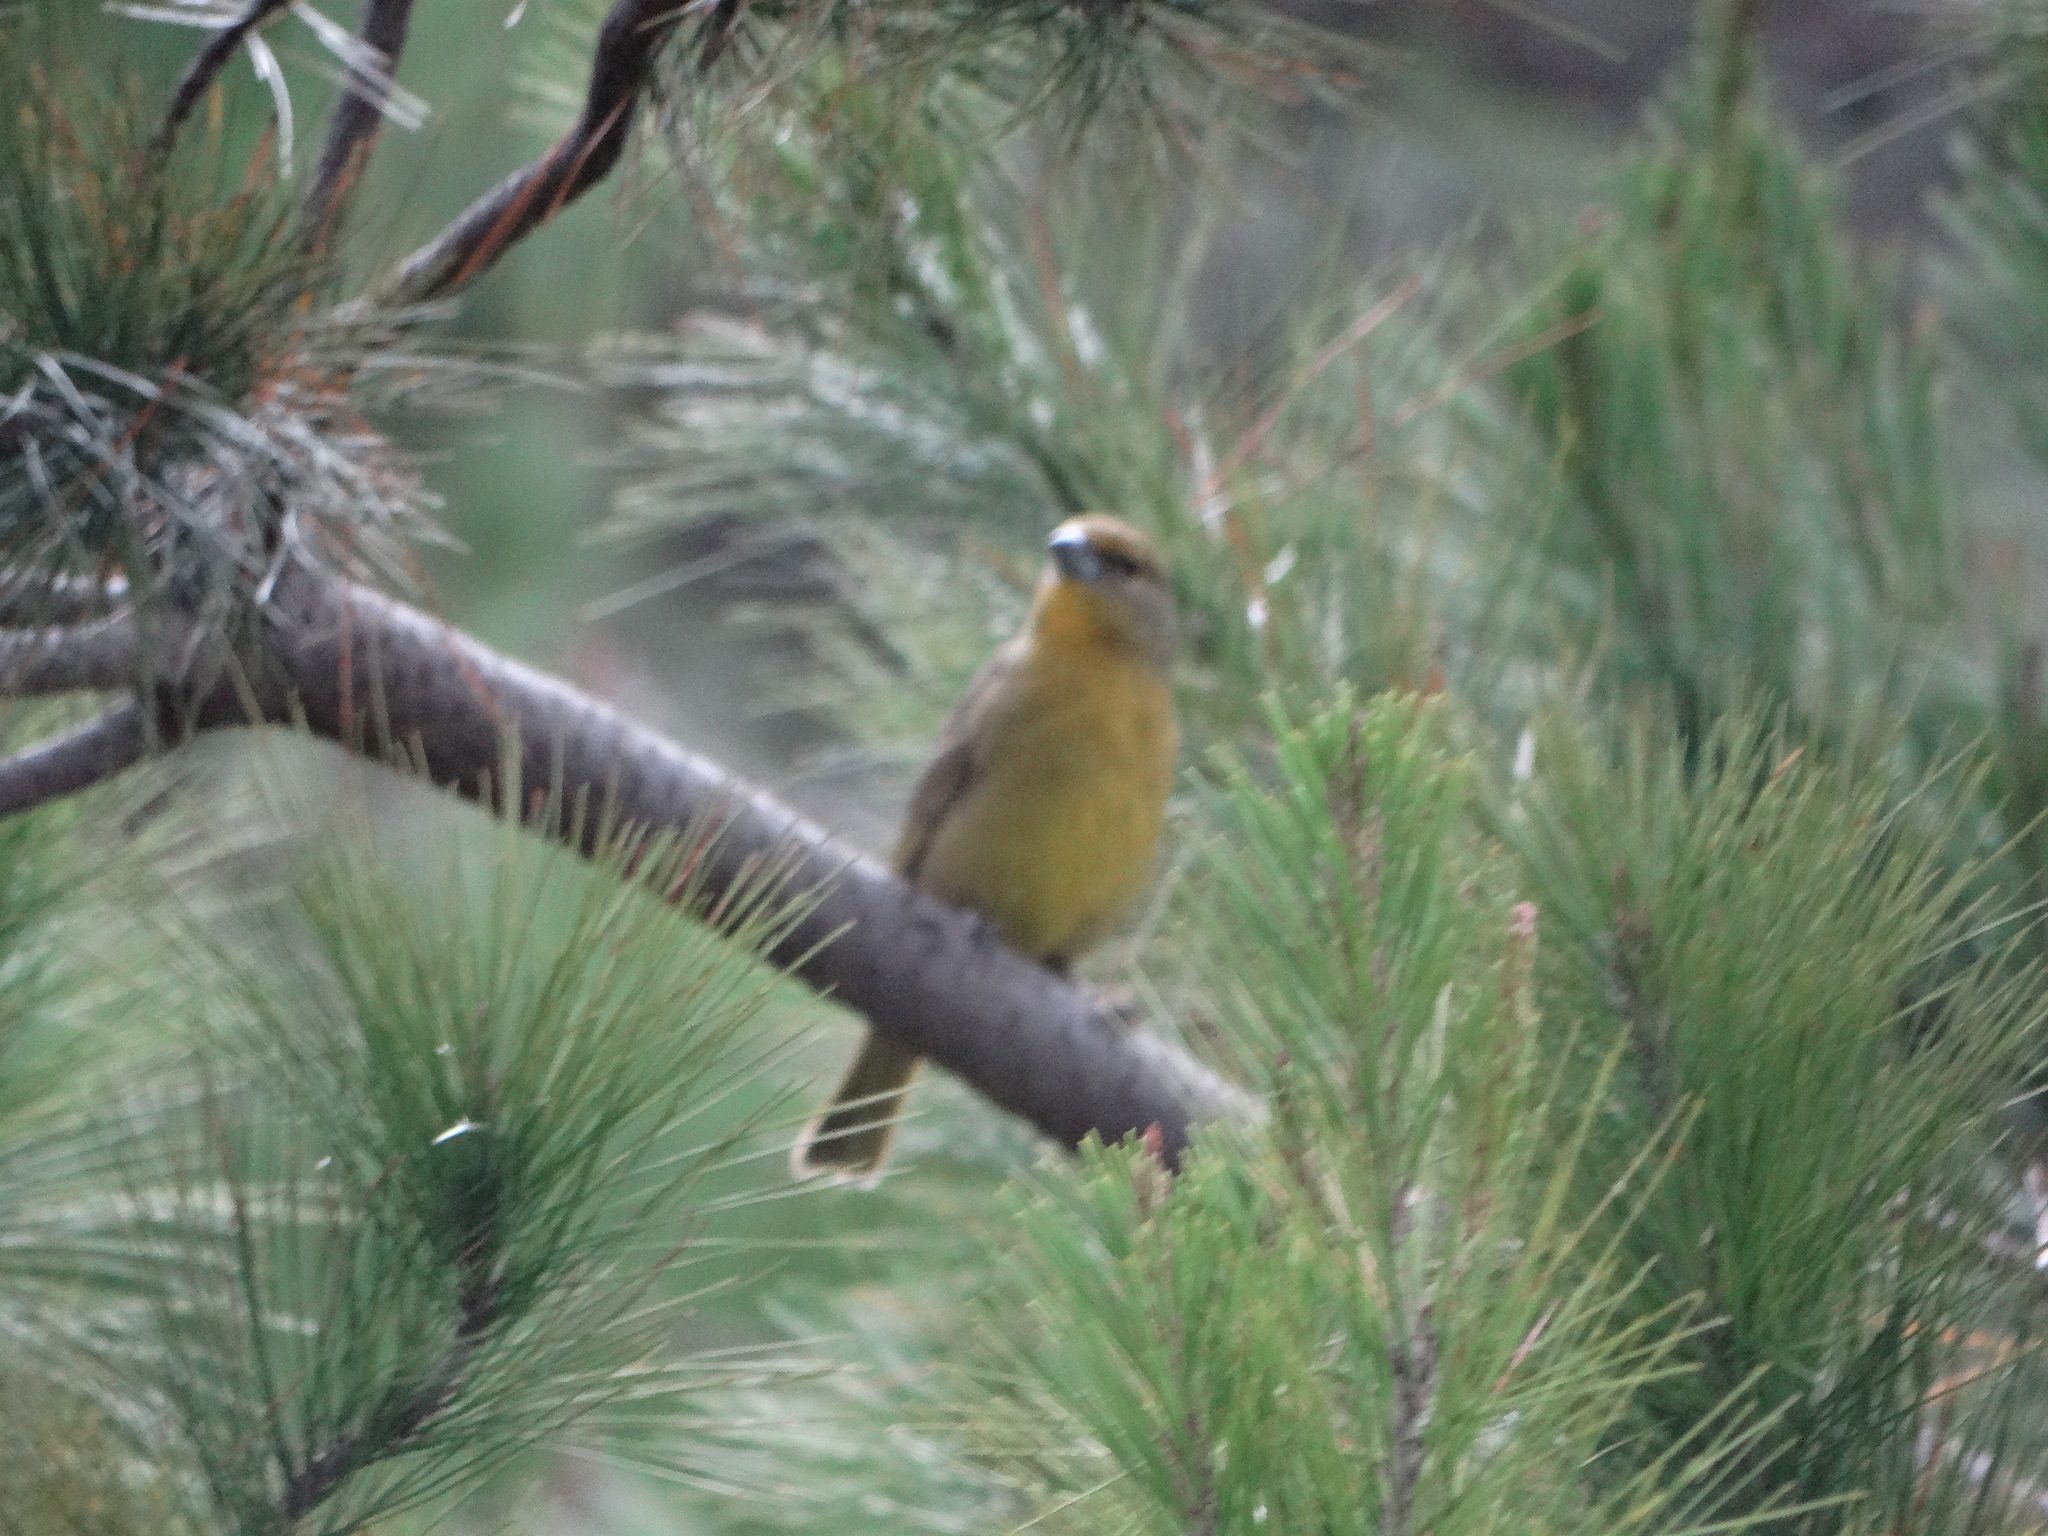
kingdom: Animalia
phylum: Chordata
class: Aves
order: Passeriformes
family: Cardinalidae
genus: Piranga
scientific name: Piranga flava
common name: Red tanager
